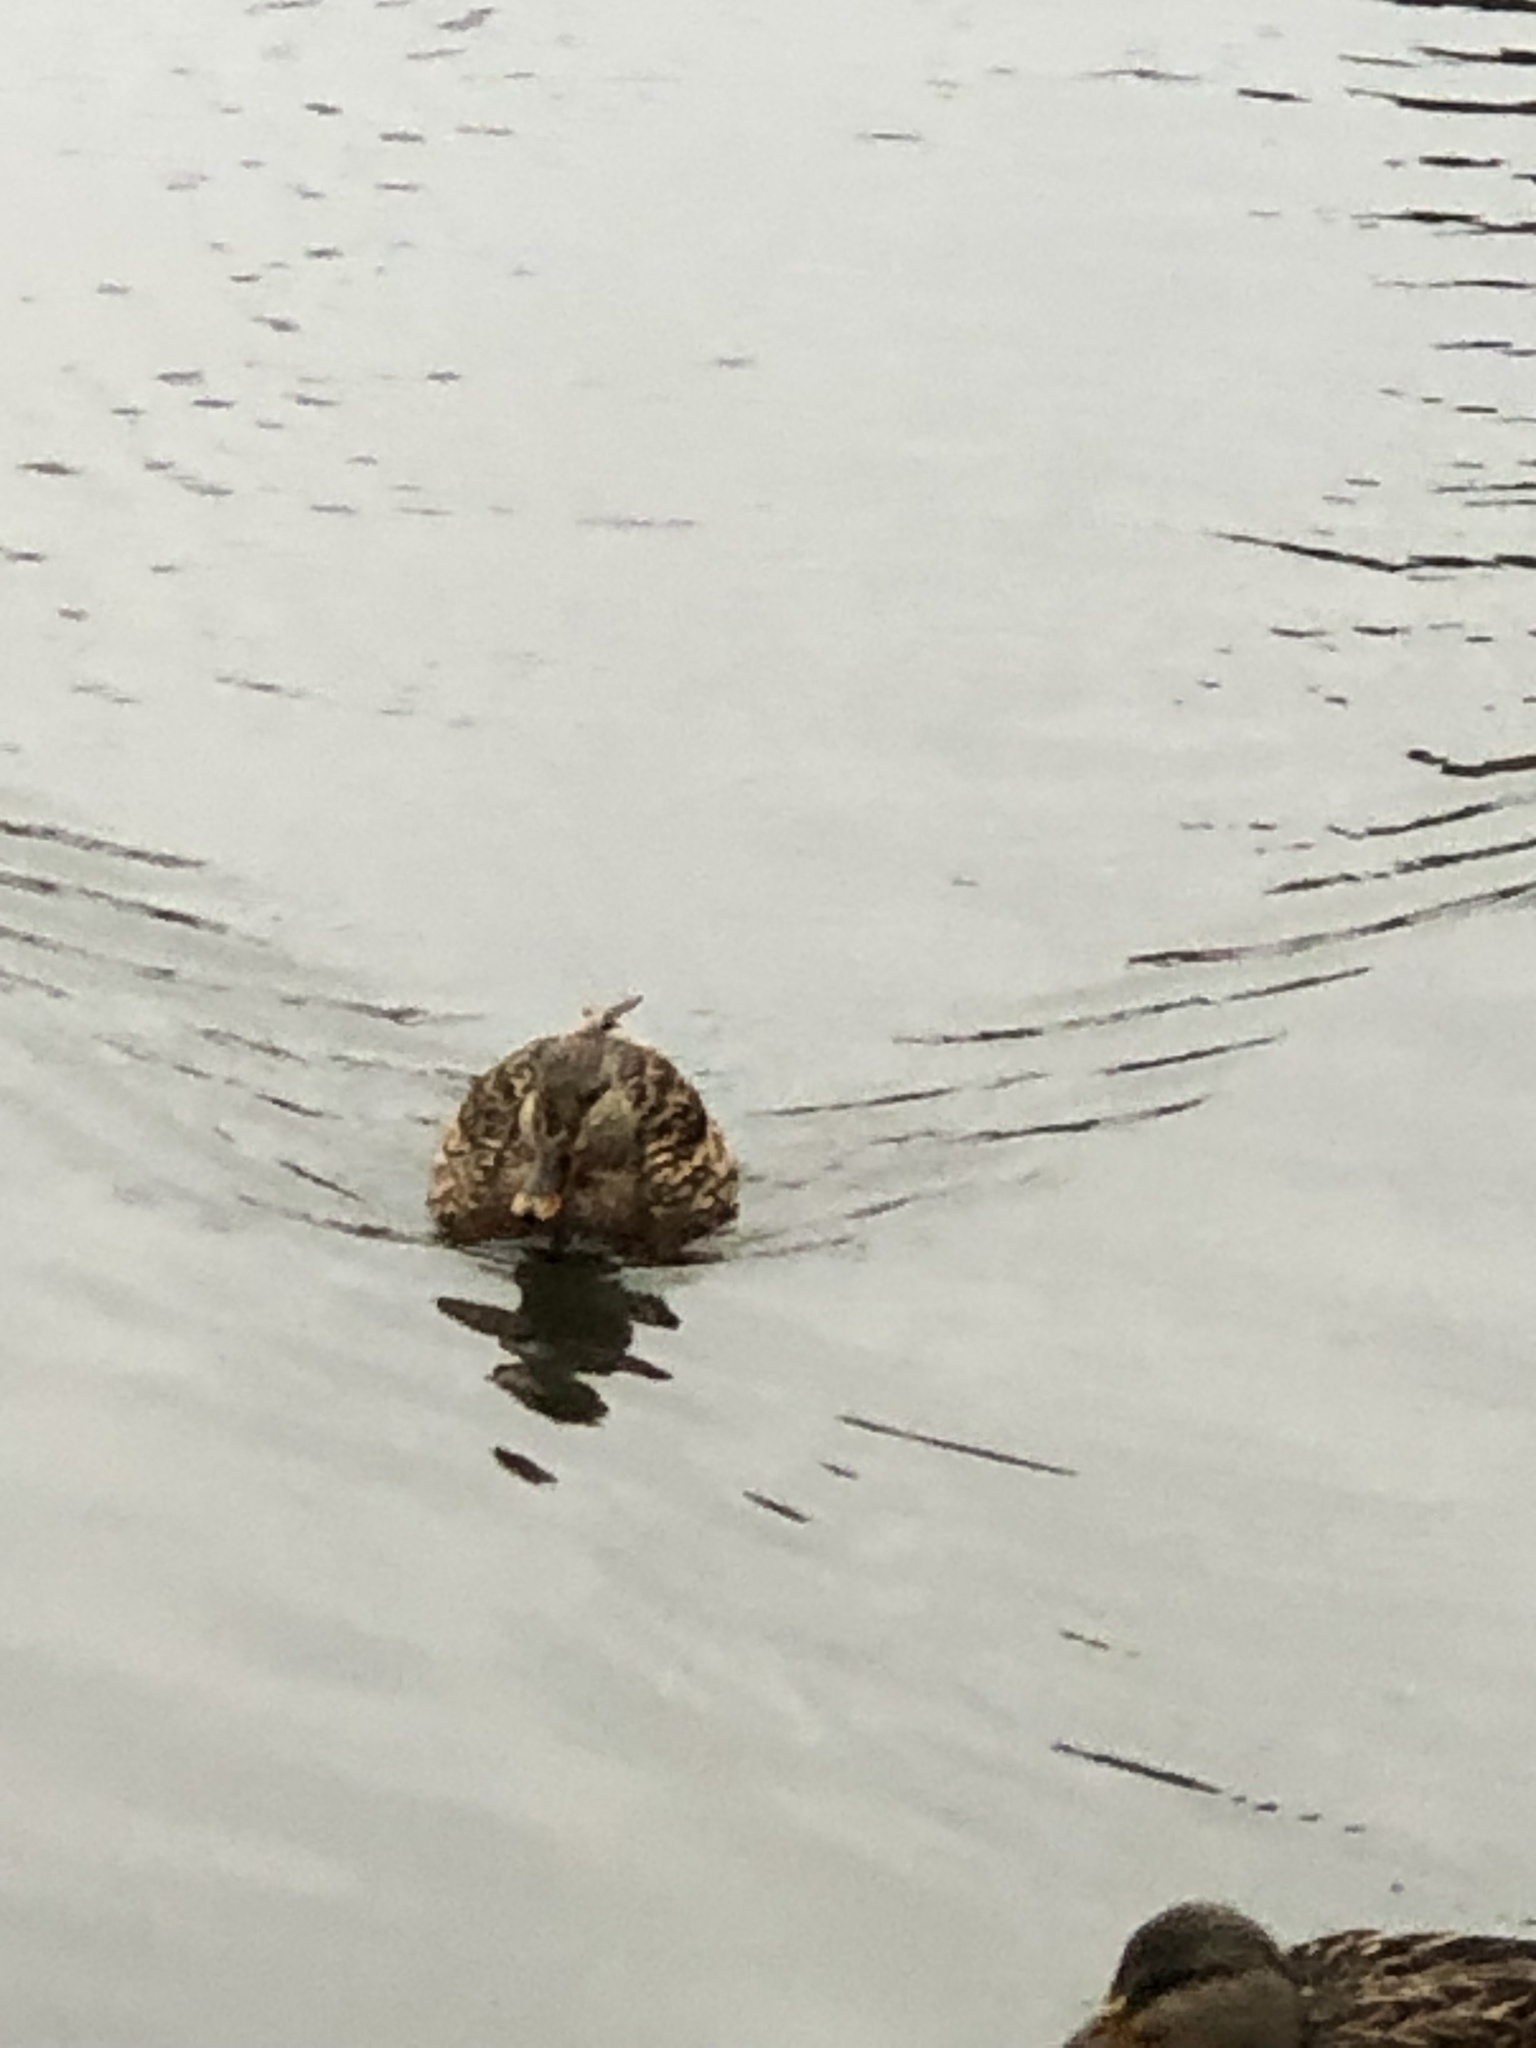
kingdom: Animalia
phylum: Chordata
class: Aves
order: Anseriformes
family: Anatidae
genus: Anas
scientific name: Anas platyrhynchos
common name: Mallard
